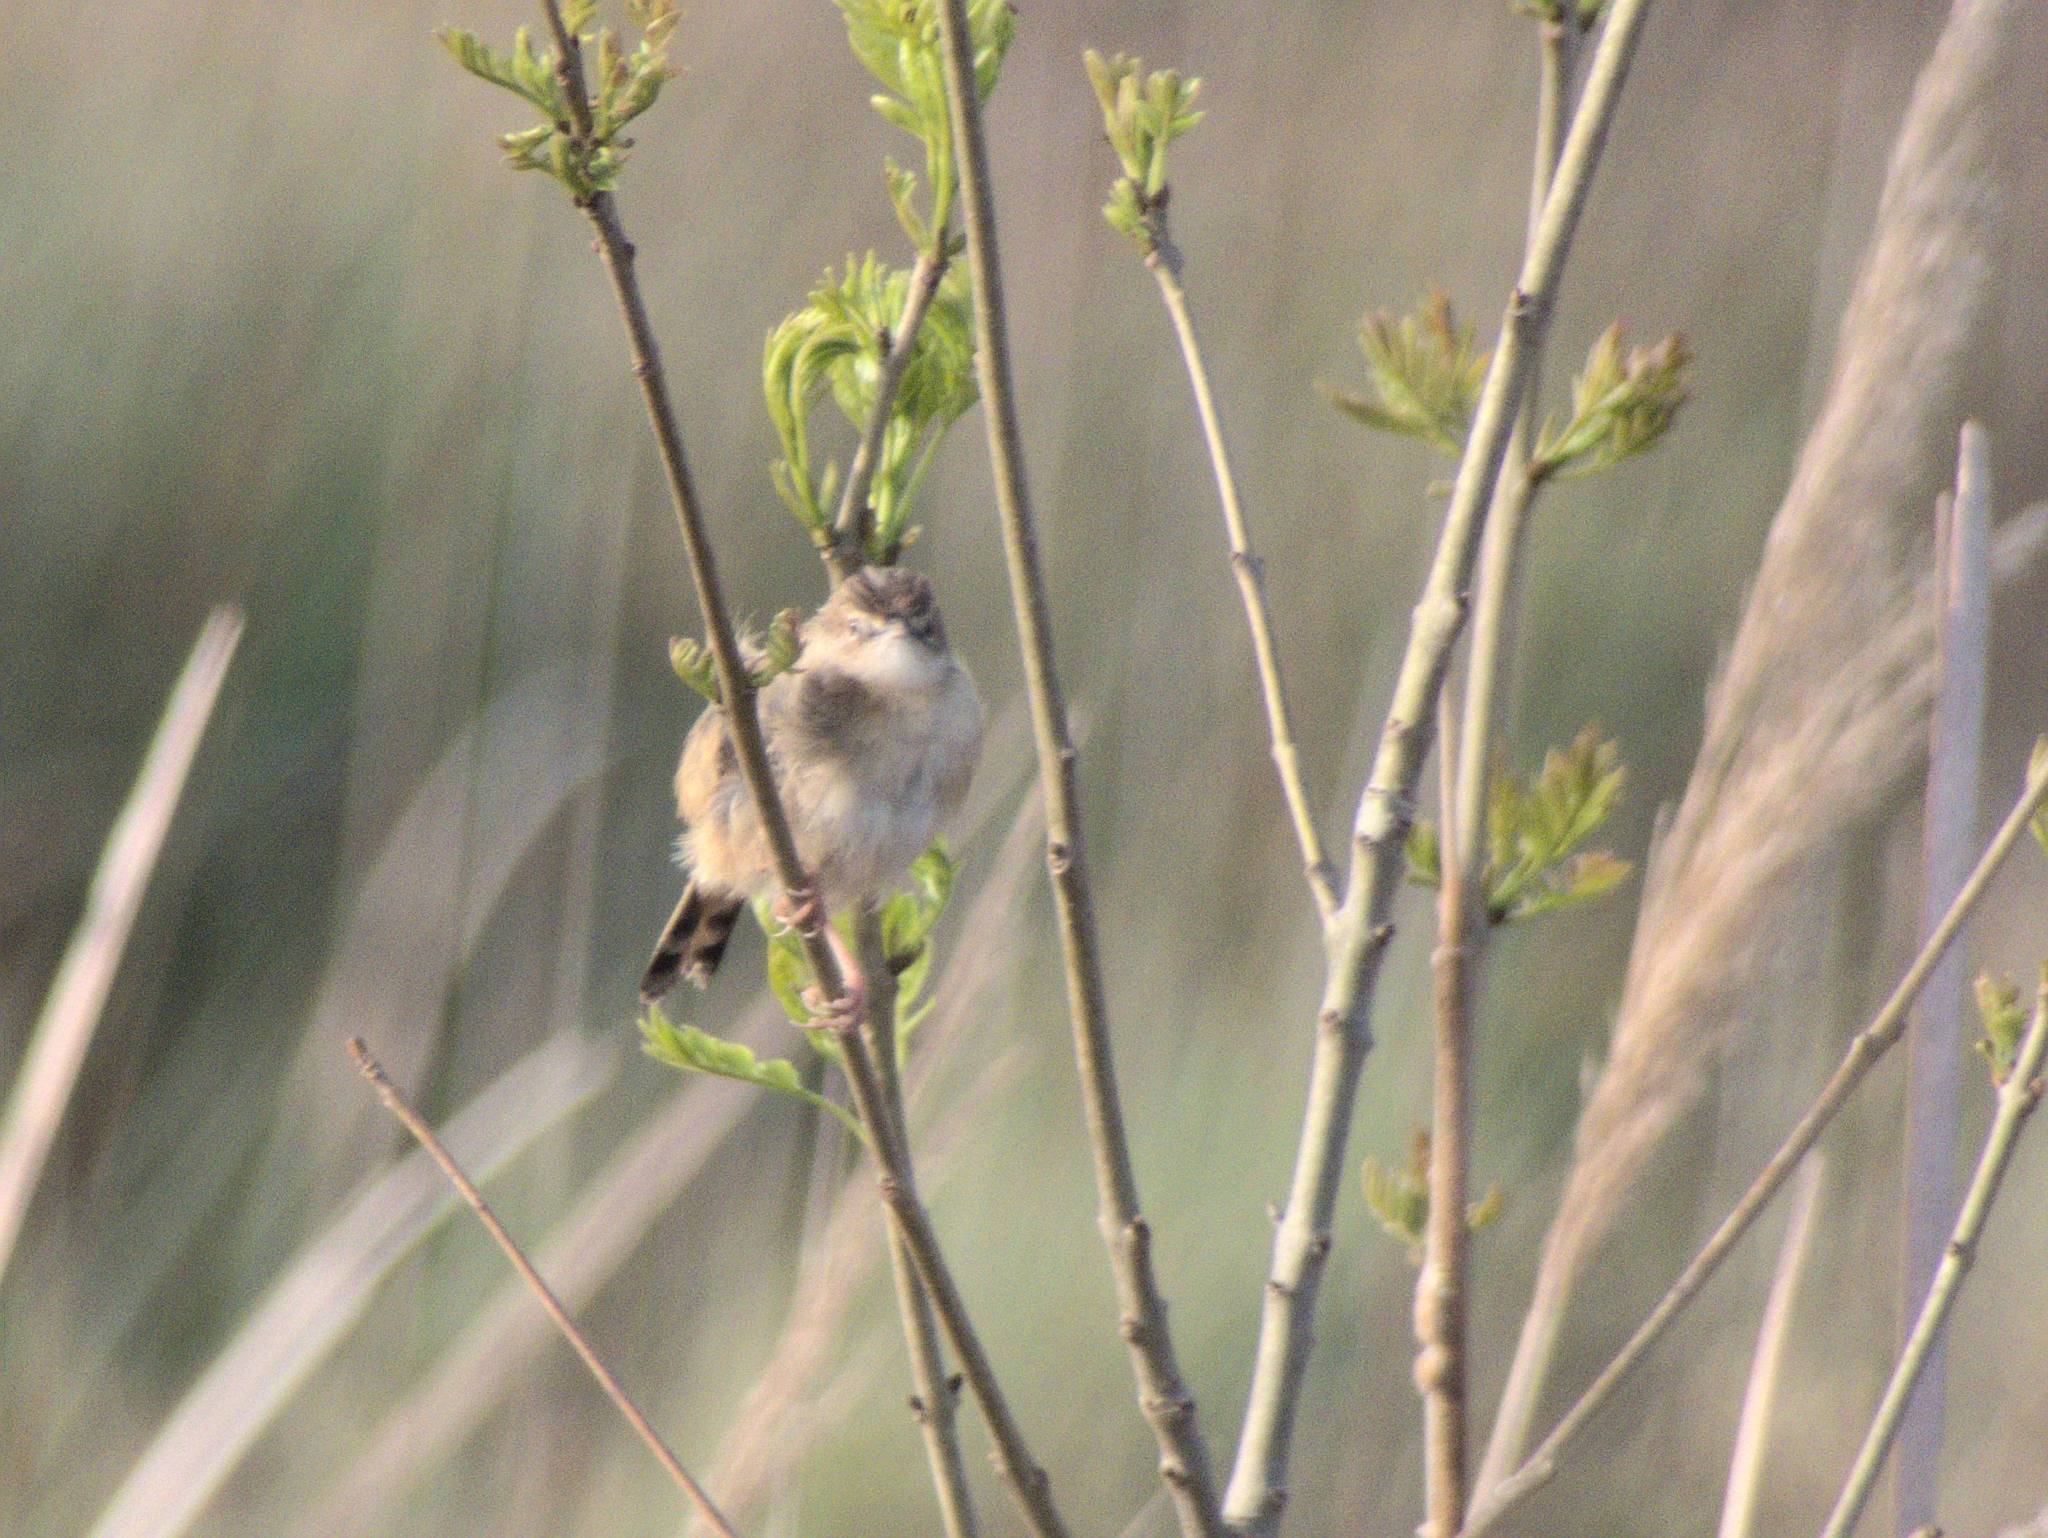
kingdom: Animalia
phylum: Chordata
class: Aves
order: Passeriformes
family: Cisticolidae
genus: Cisticola
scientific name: Cisticola juncidis
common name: Zitting cisticola
